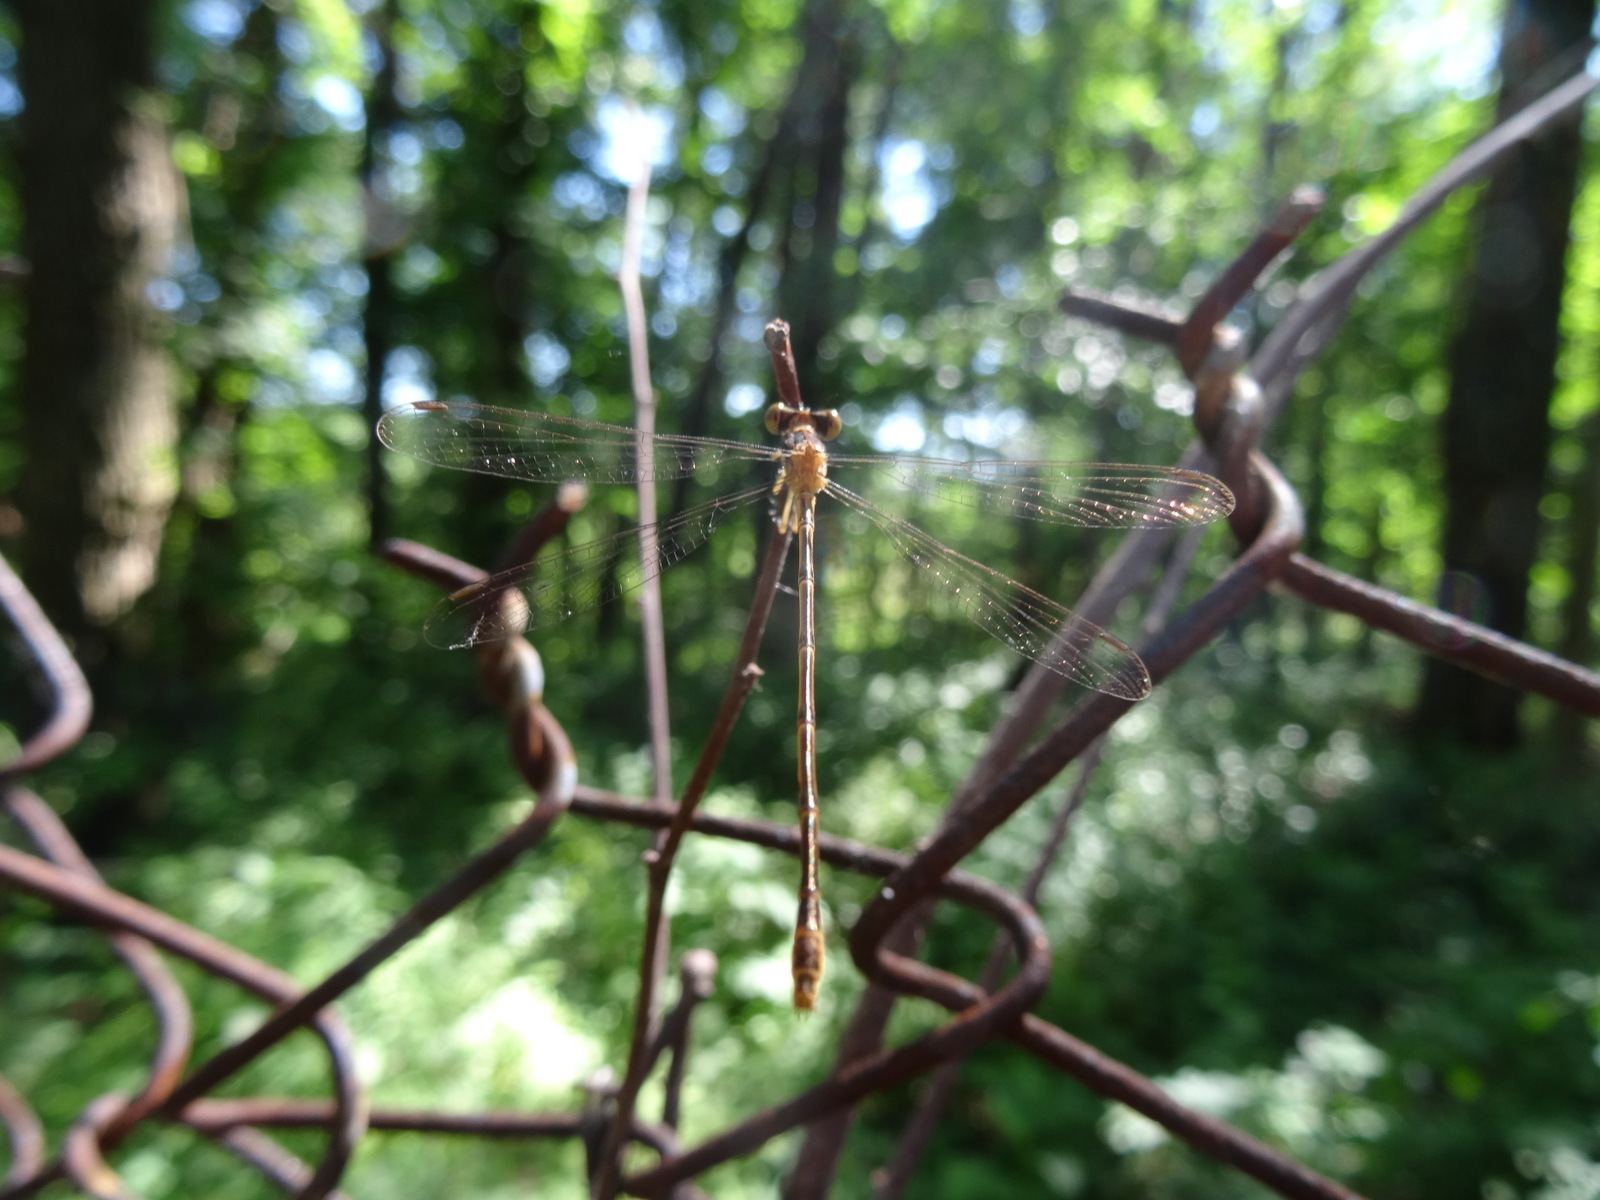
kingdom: Animalia
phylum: Arthropoda
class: Insecta
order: Odonata
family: Lestidae
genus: Lestes
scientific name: Lestes rectangularis
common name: Slender spreadwing
